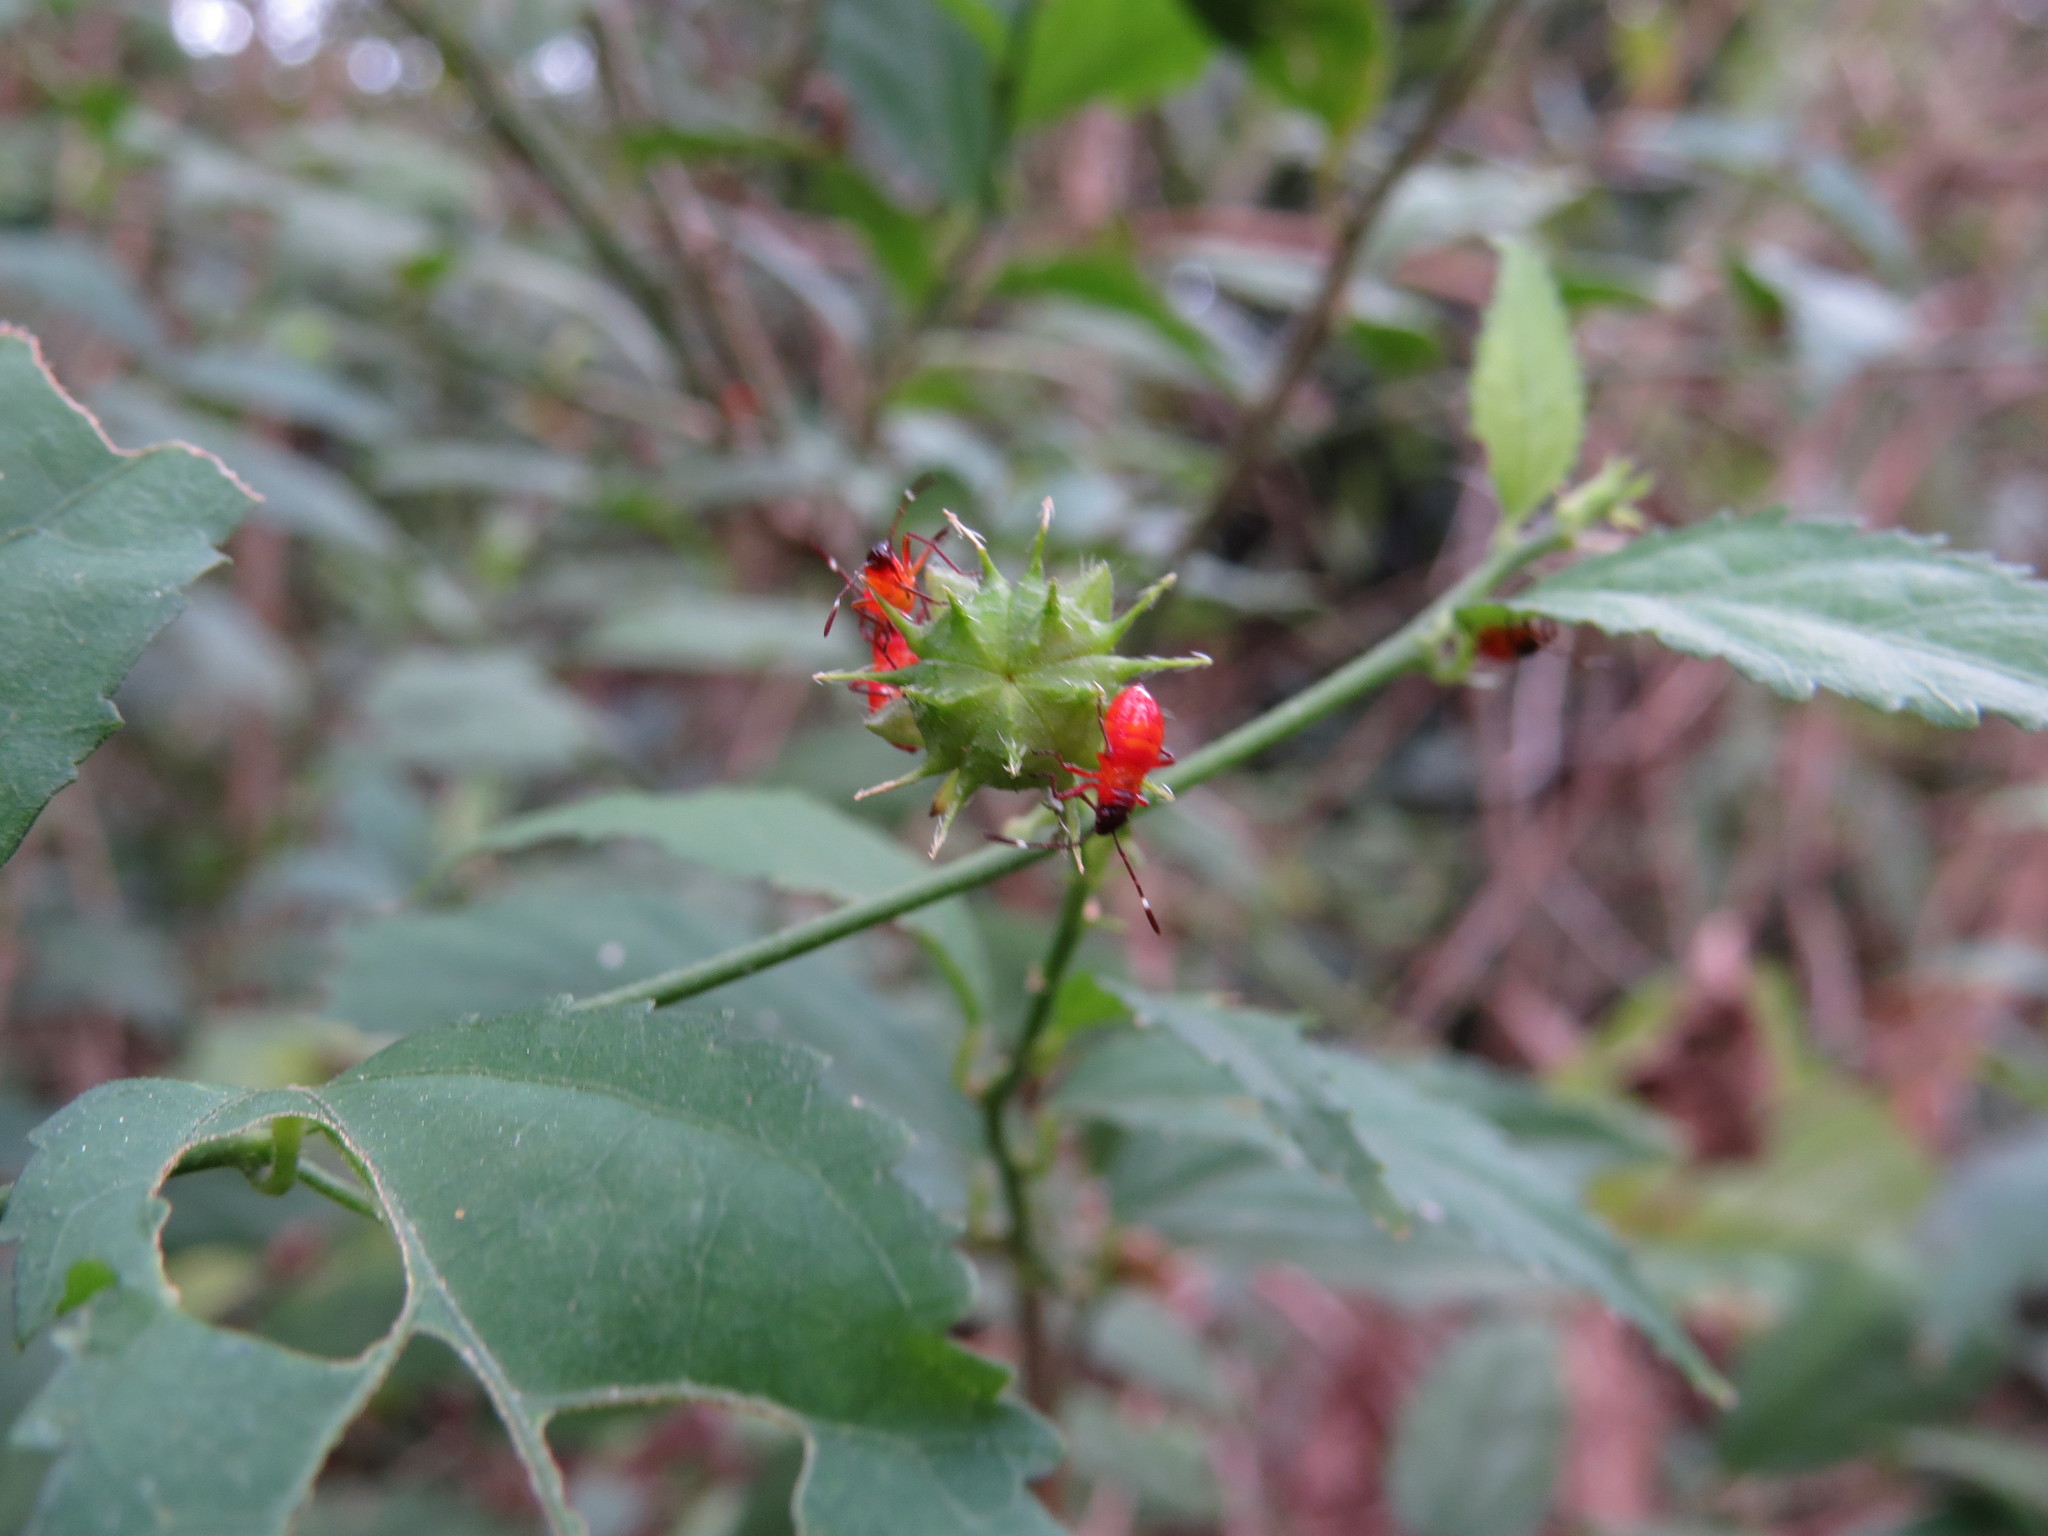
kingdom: Animalia
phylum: Arthropoda
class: Insecta
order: Hemiptera
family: Pyrrhocoridae
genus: Dysdercus
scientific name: Dysdercus albofasciatus
